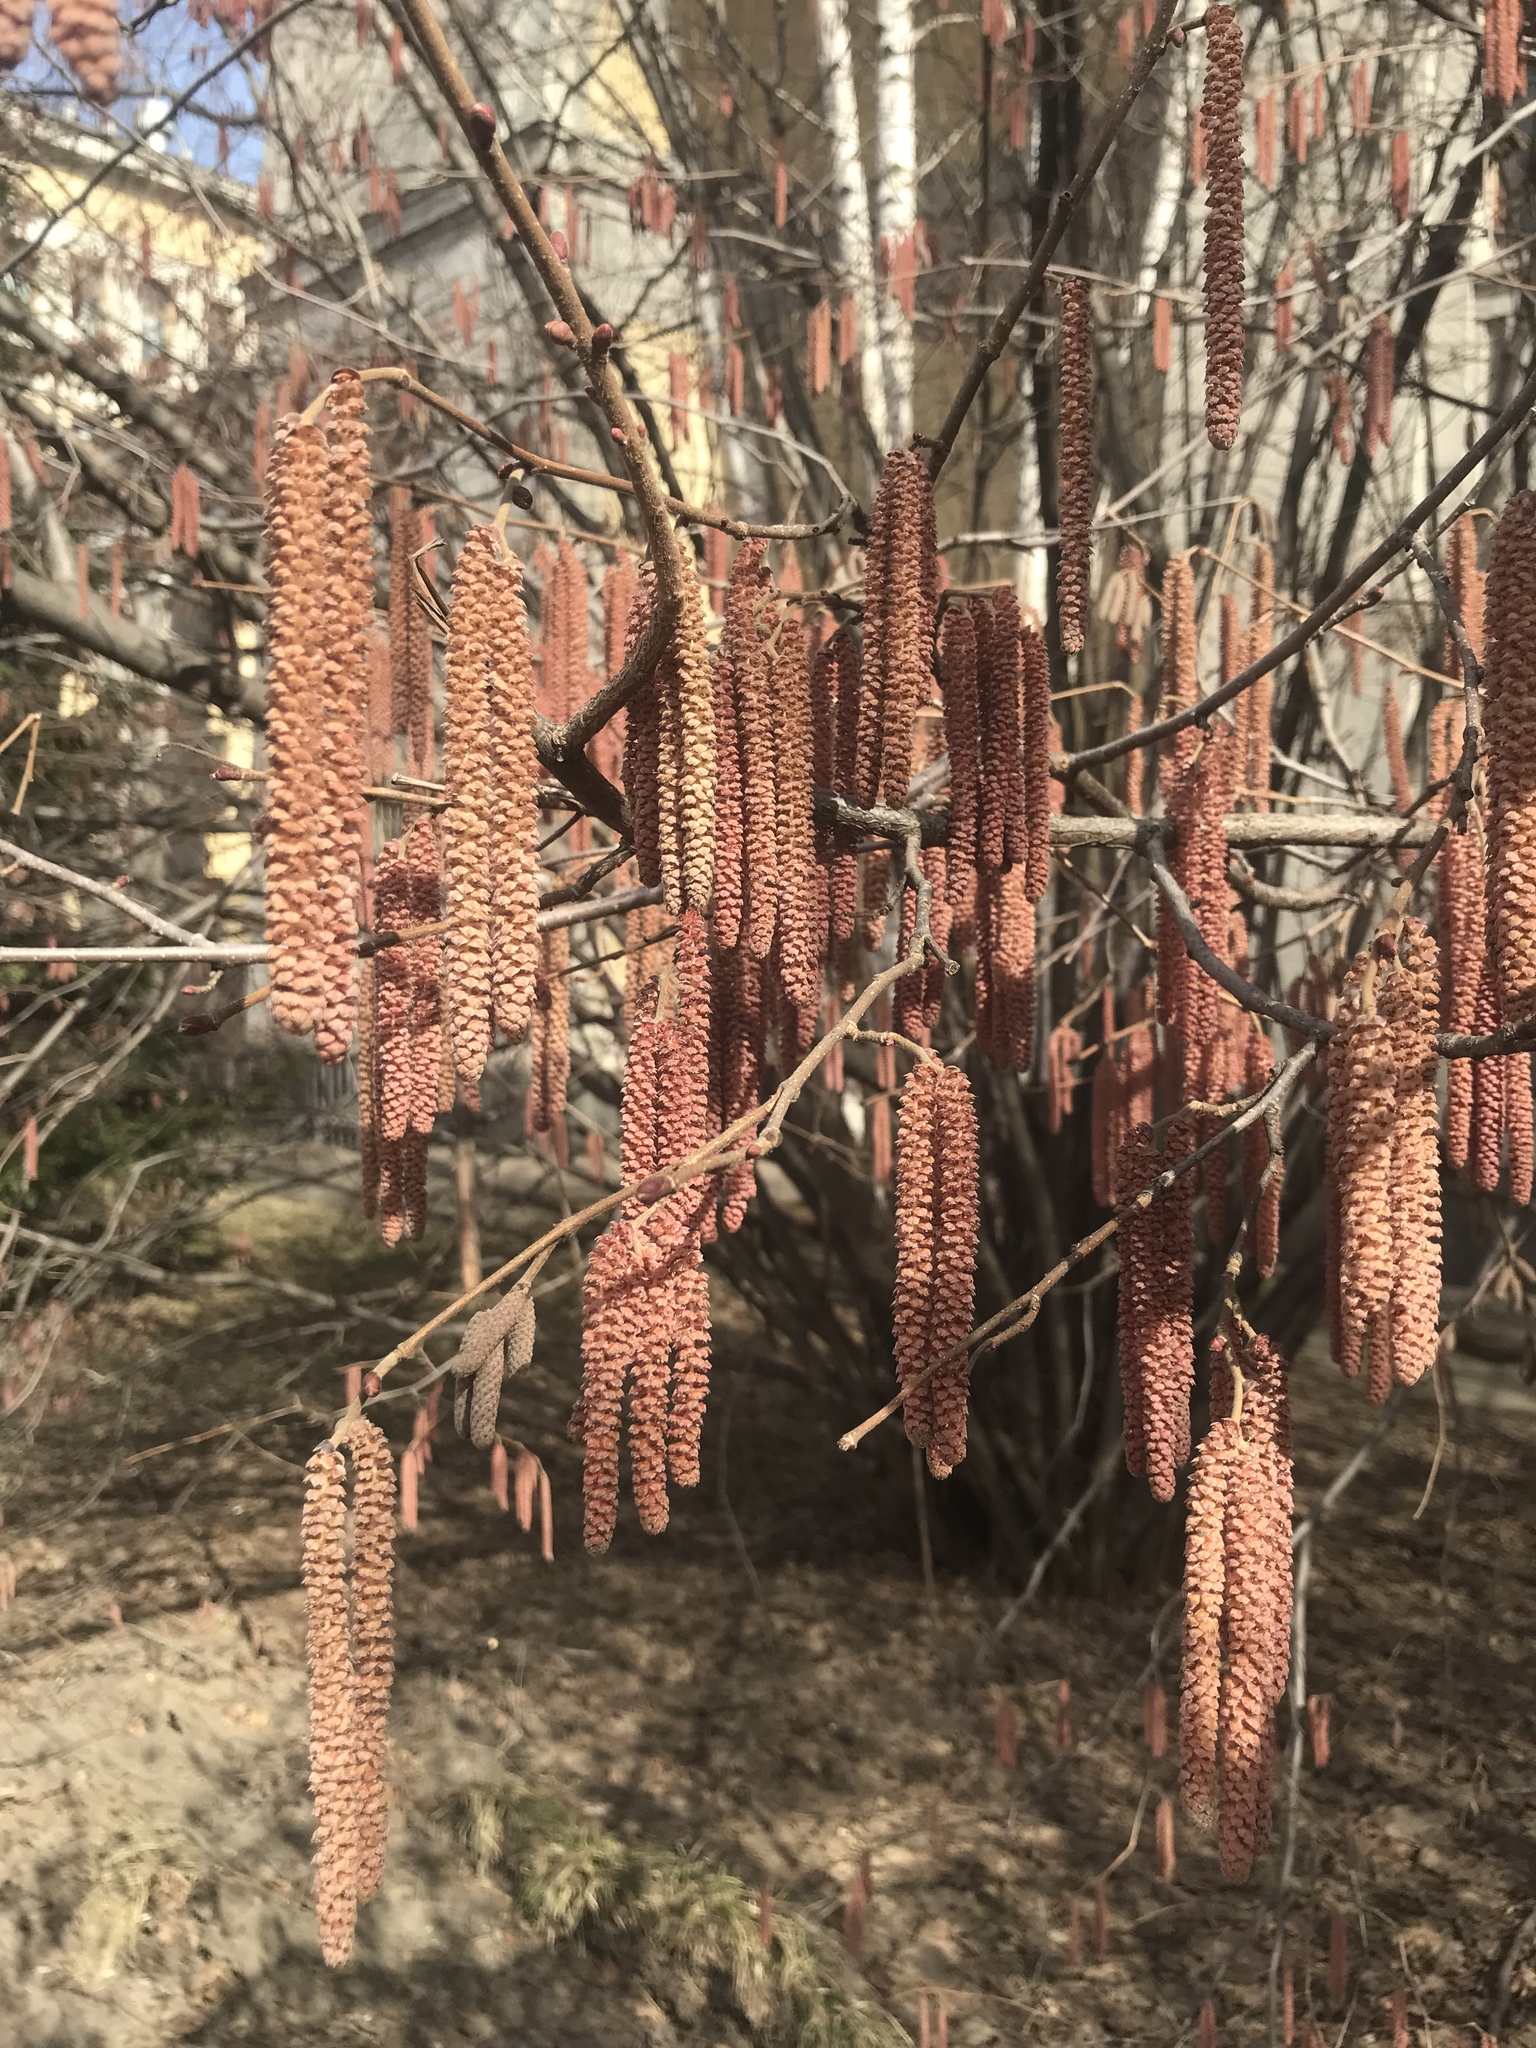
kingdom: Plantae
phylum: Tracheophyta
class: Magnoliopsida
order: Fagales
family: Betulaceae
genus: Corylus
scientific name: Corylus avellana
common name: European hazel
